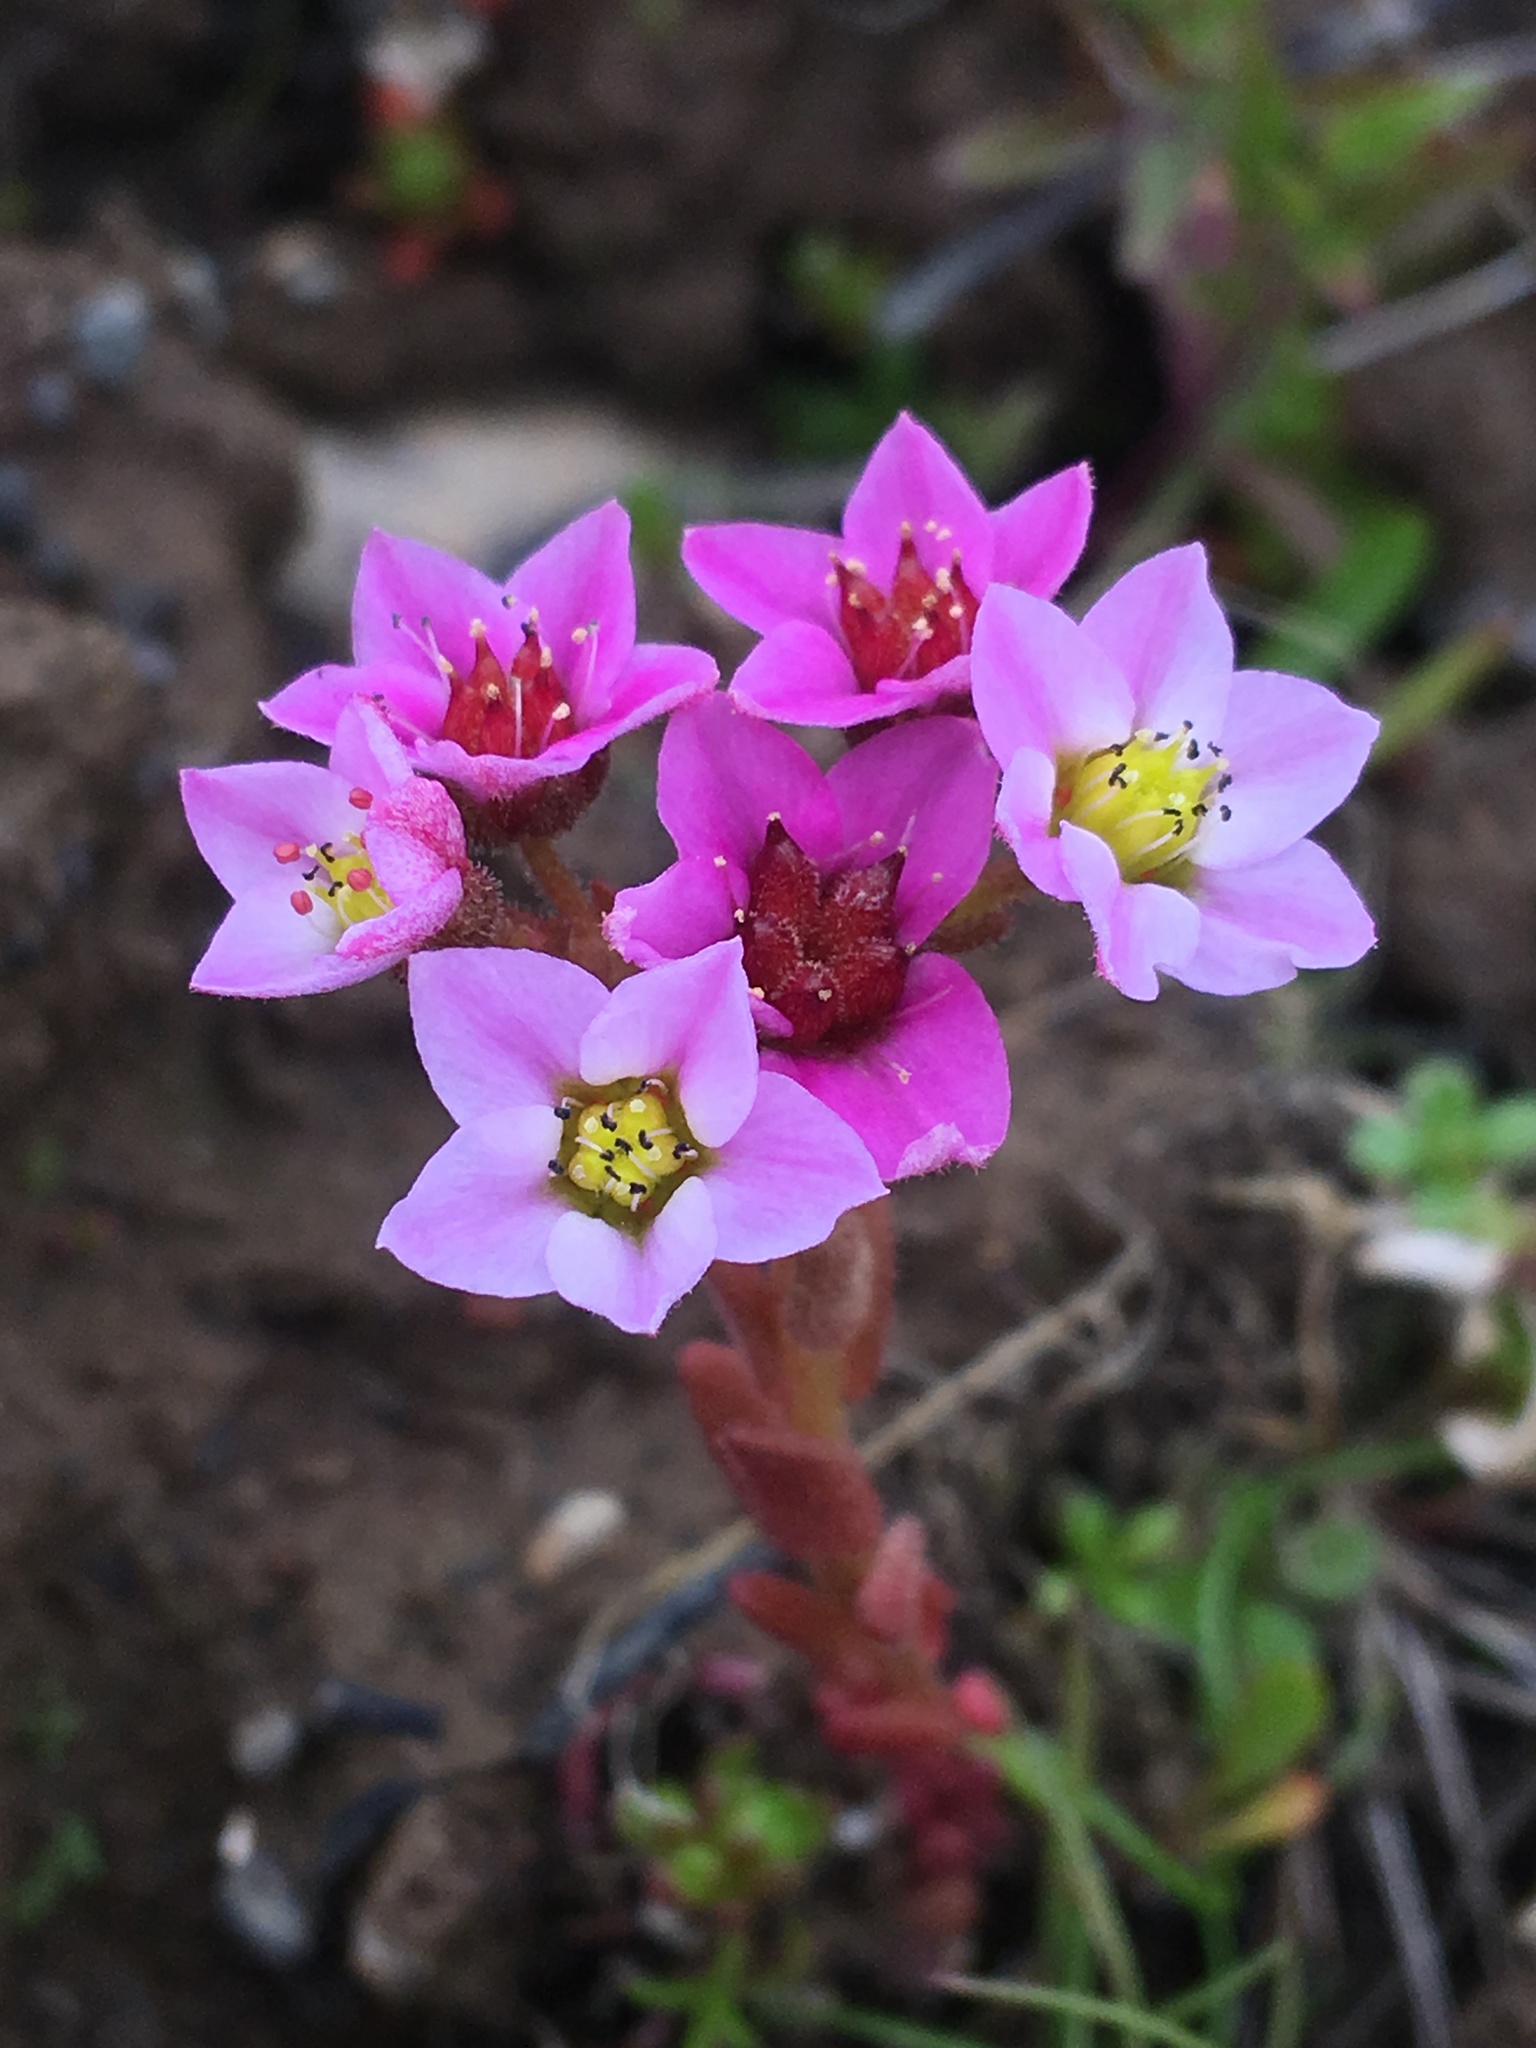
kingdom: Plantae
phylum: Tracheophyta
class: Magnoliopsida
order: Saxifragales
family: Crassulaceae
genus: Sedum
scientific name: Sedum villosum
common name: Hairy stonecrop
